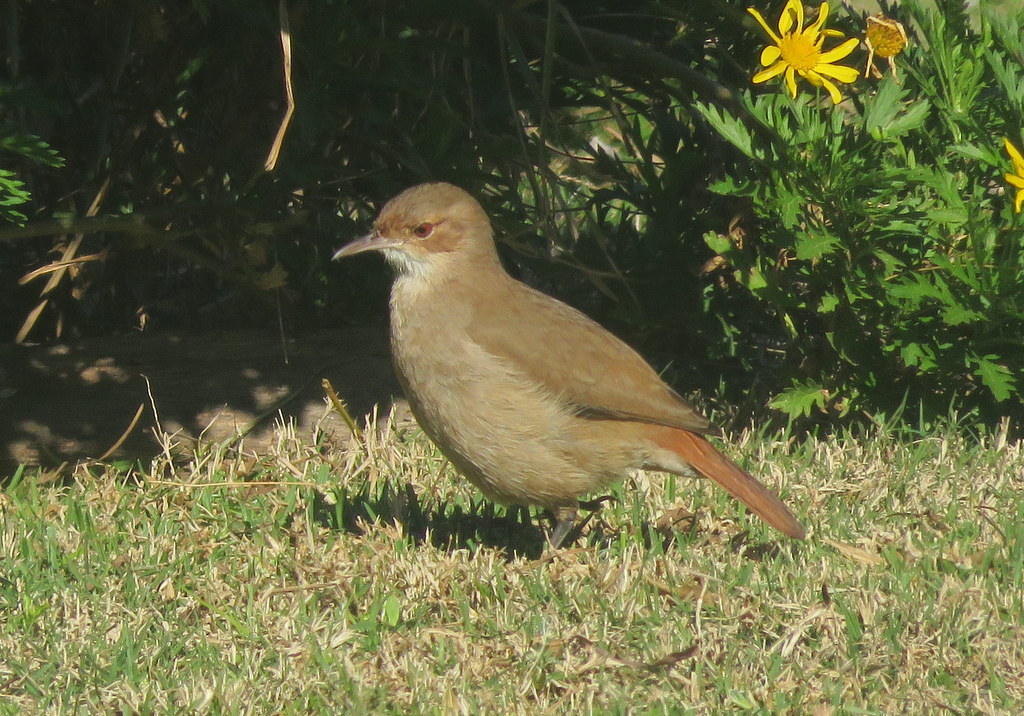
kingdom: Animalia
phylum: Chordata
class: Aves
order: Passeriformes
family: Furnariidae
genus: Furnarius
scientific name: Furnarius rufus
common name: Rufous hornero
